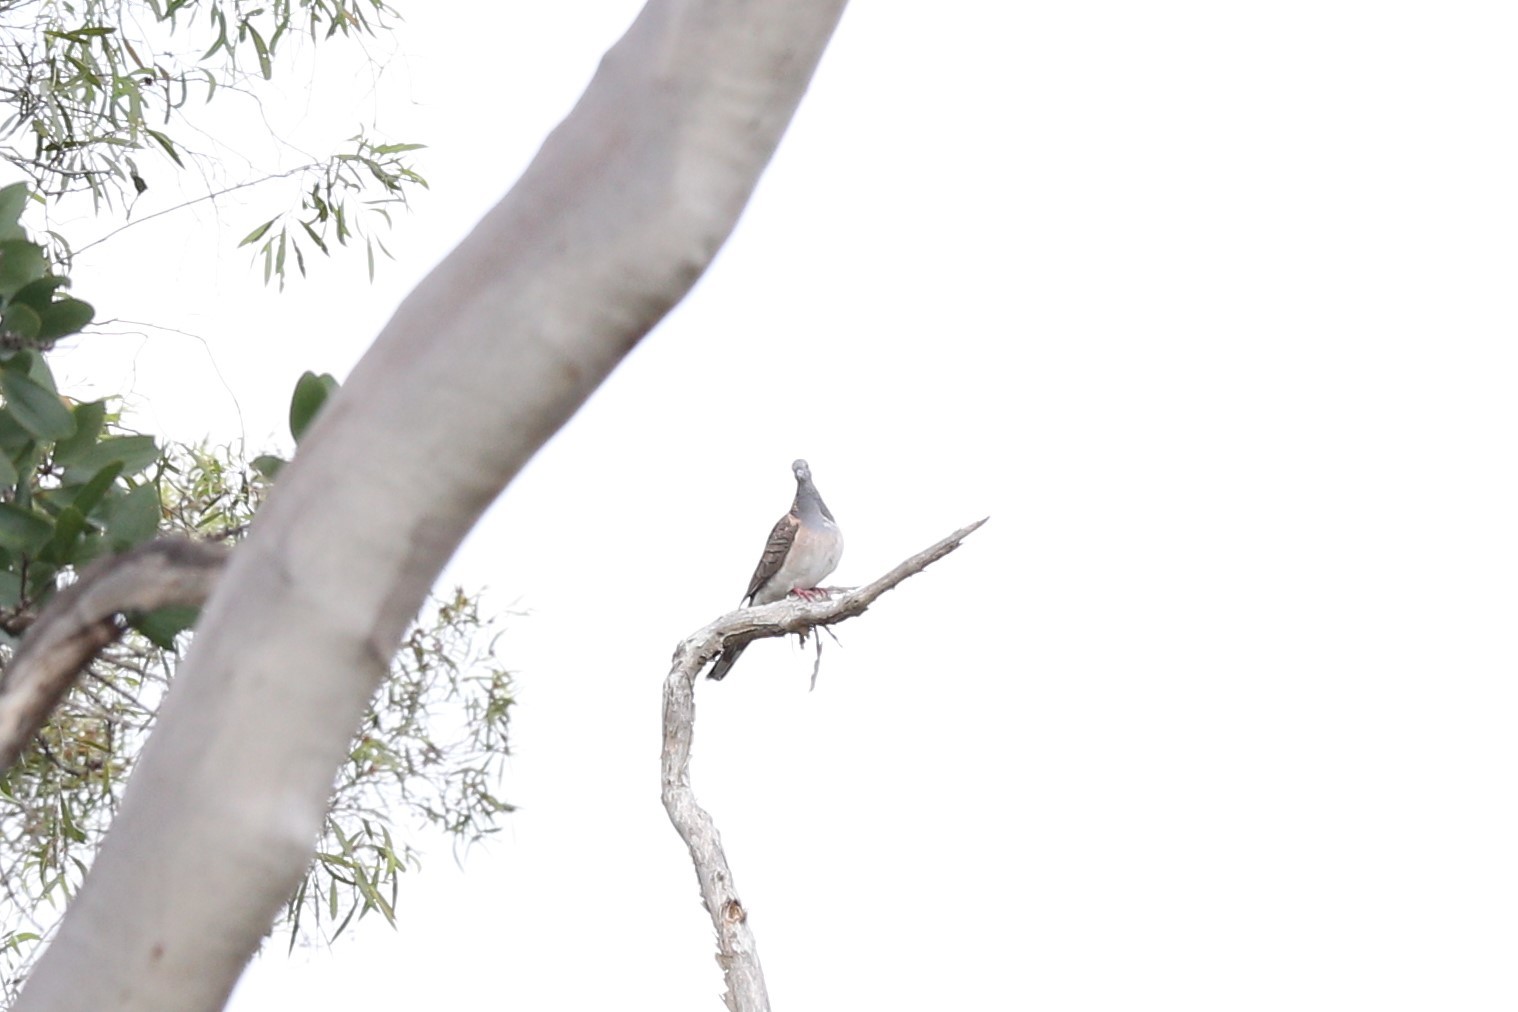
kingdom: Animalia
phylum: Chordata
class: Aves
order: Columbiformes
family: Columbidae
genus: Geopelia
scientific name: Geopelia humeralis
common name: Bar-shouldered dove
